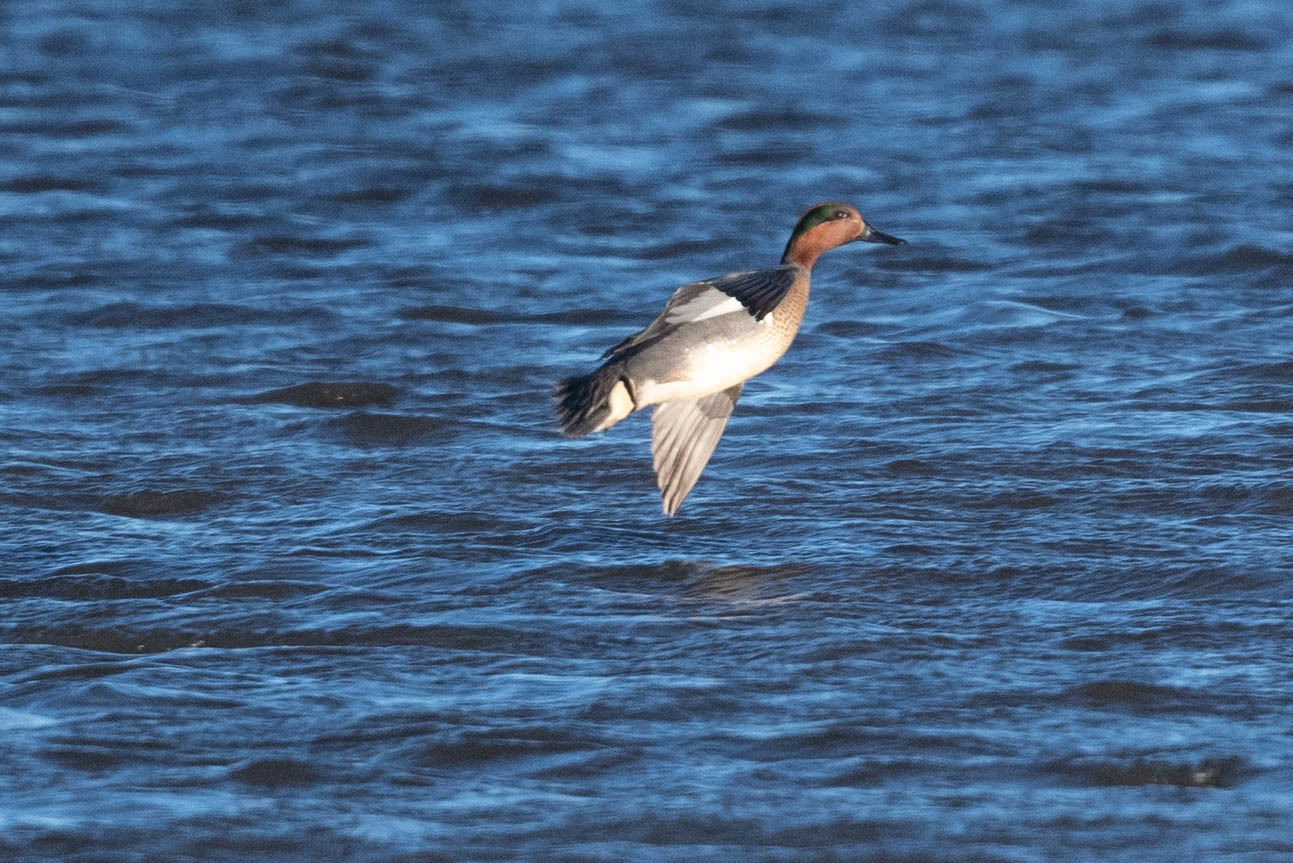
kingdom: Animalia
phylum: Chordata
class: Aves
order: Anseriformes
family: Anatidae
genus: Anas
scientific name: Anas crecca
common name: Eurasian teal
